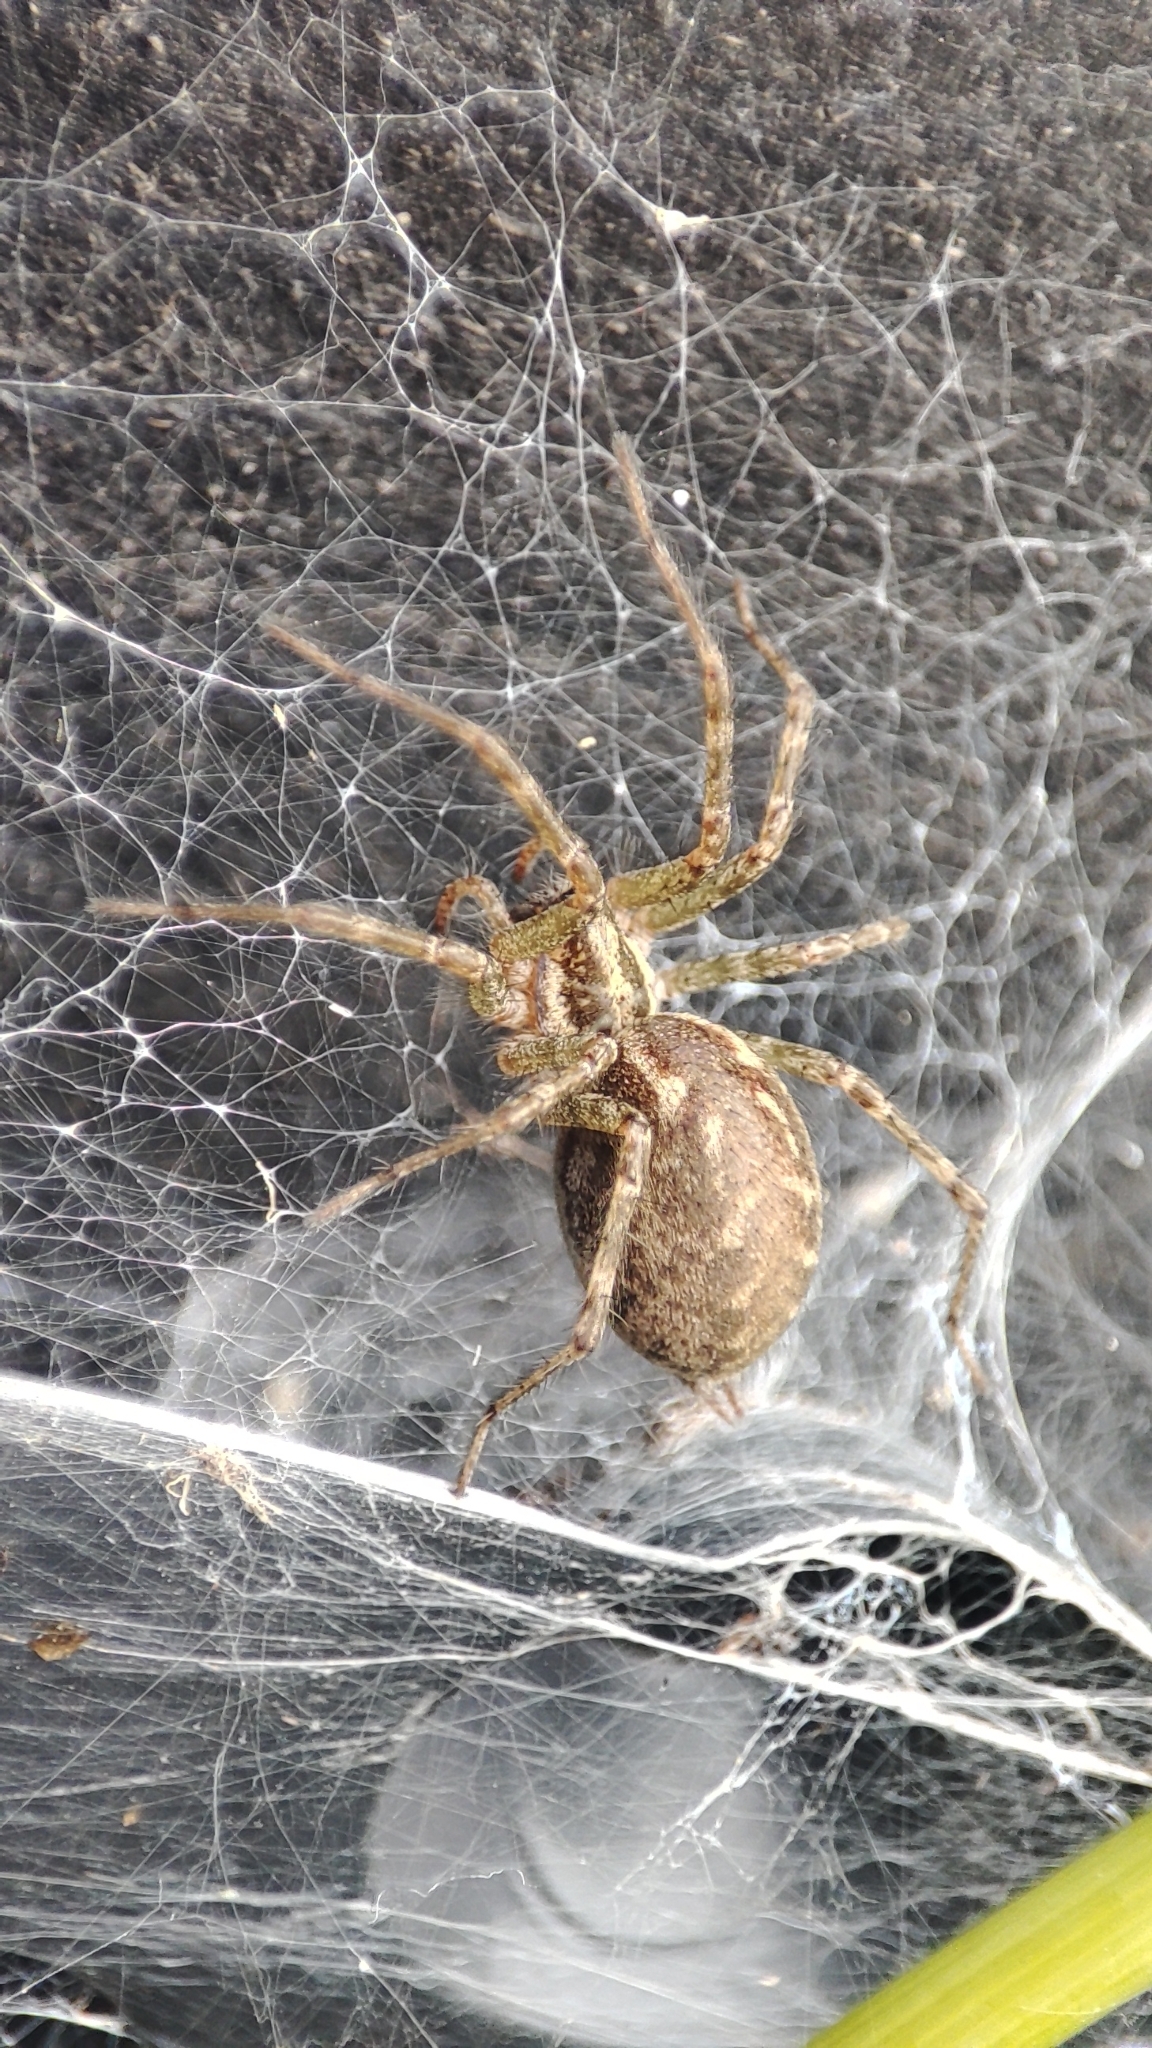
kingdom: Animalia
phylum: Arthropoda
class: Arachnida
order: Araneae
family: Agelenidae
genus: Allagelena
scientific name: Allagelena gracilens
